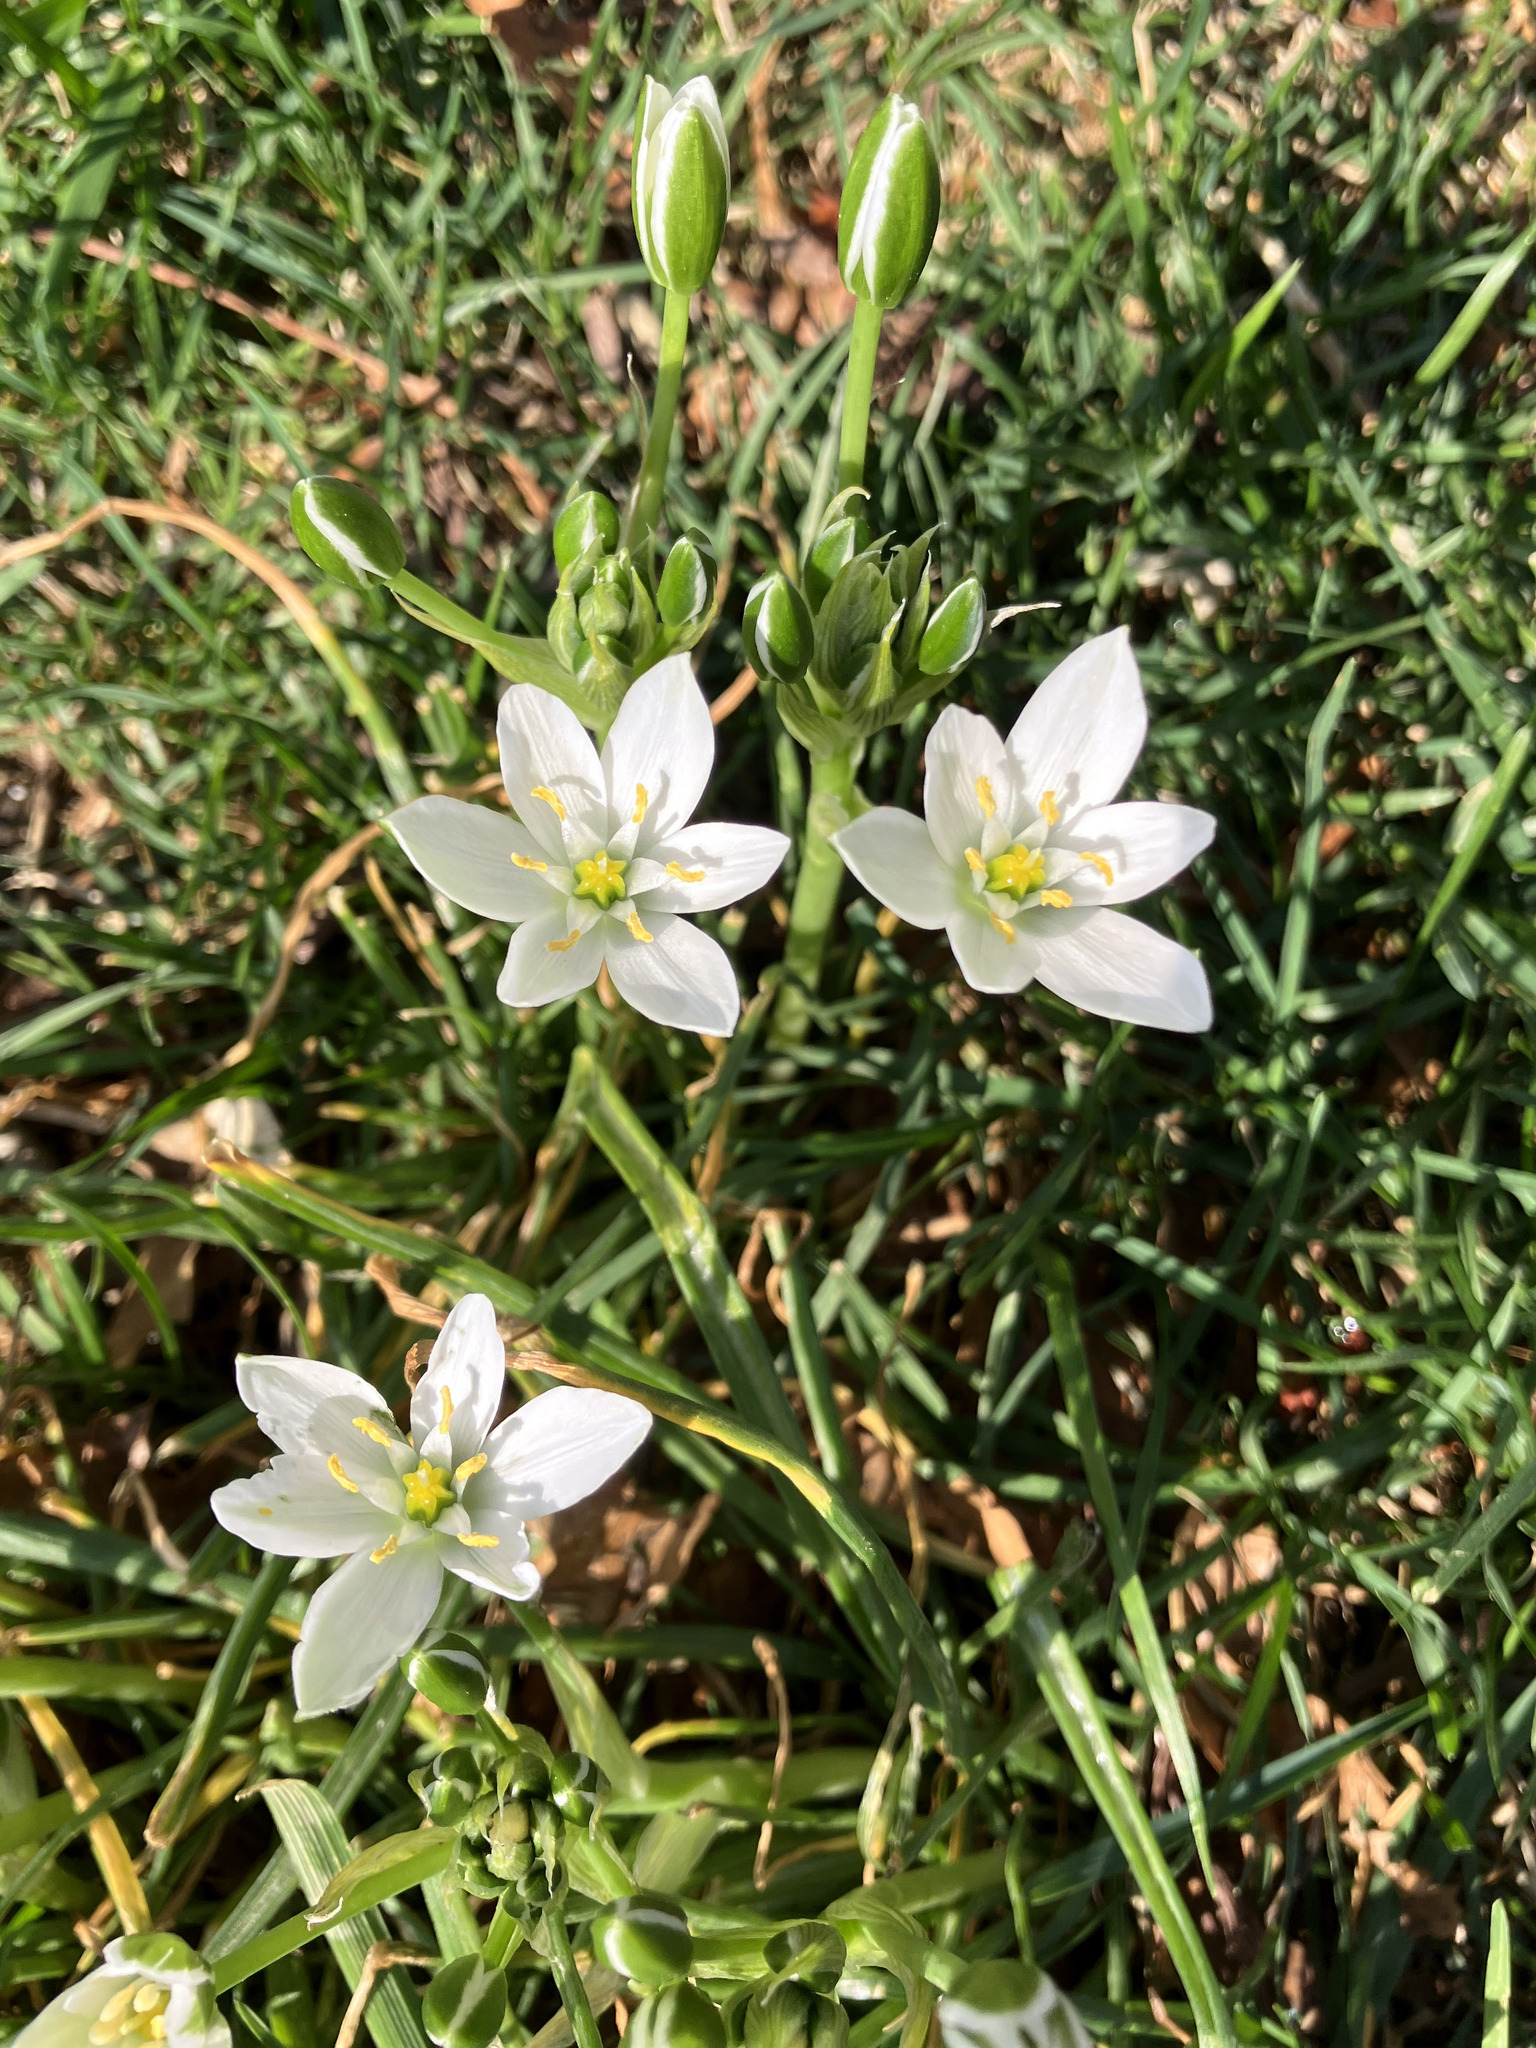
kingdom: Plantae
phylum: Tracheophyta
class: Liliopsida
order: Asparagales
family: Asparagaceae
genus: Ornithogalum
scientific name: Ornithogalum umbellatum
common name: Garden star-of-bethlehem
